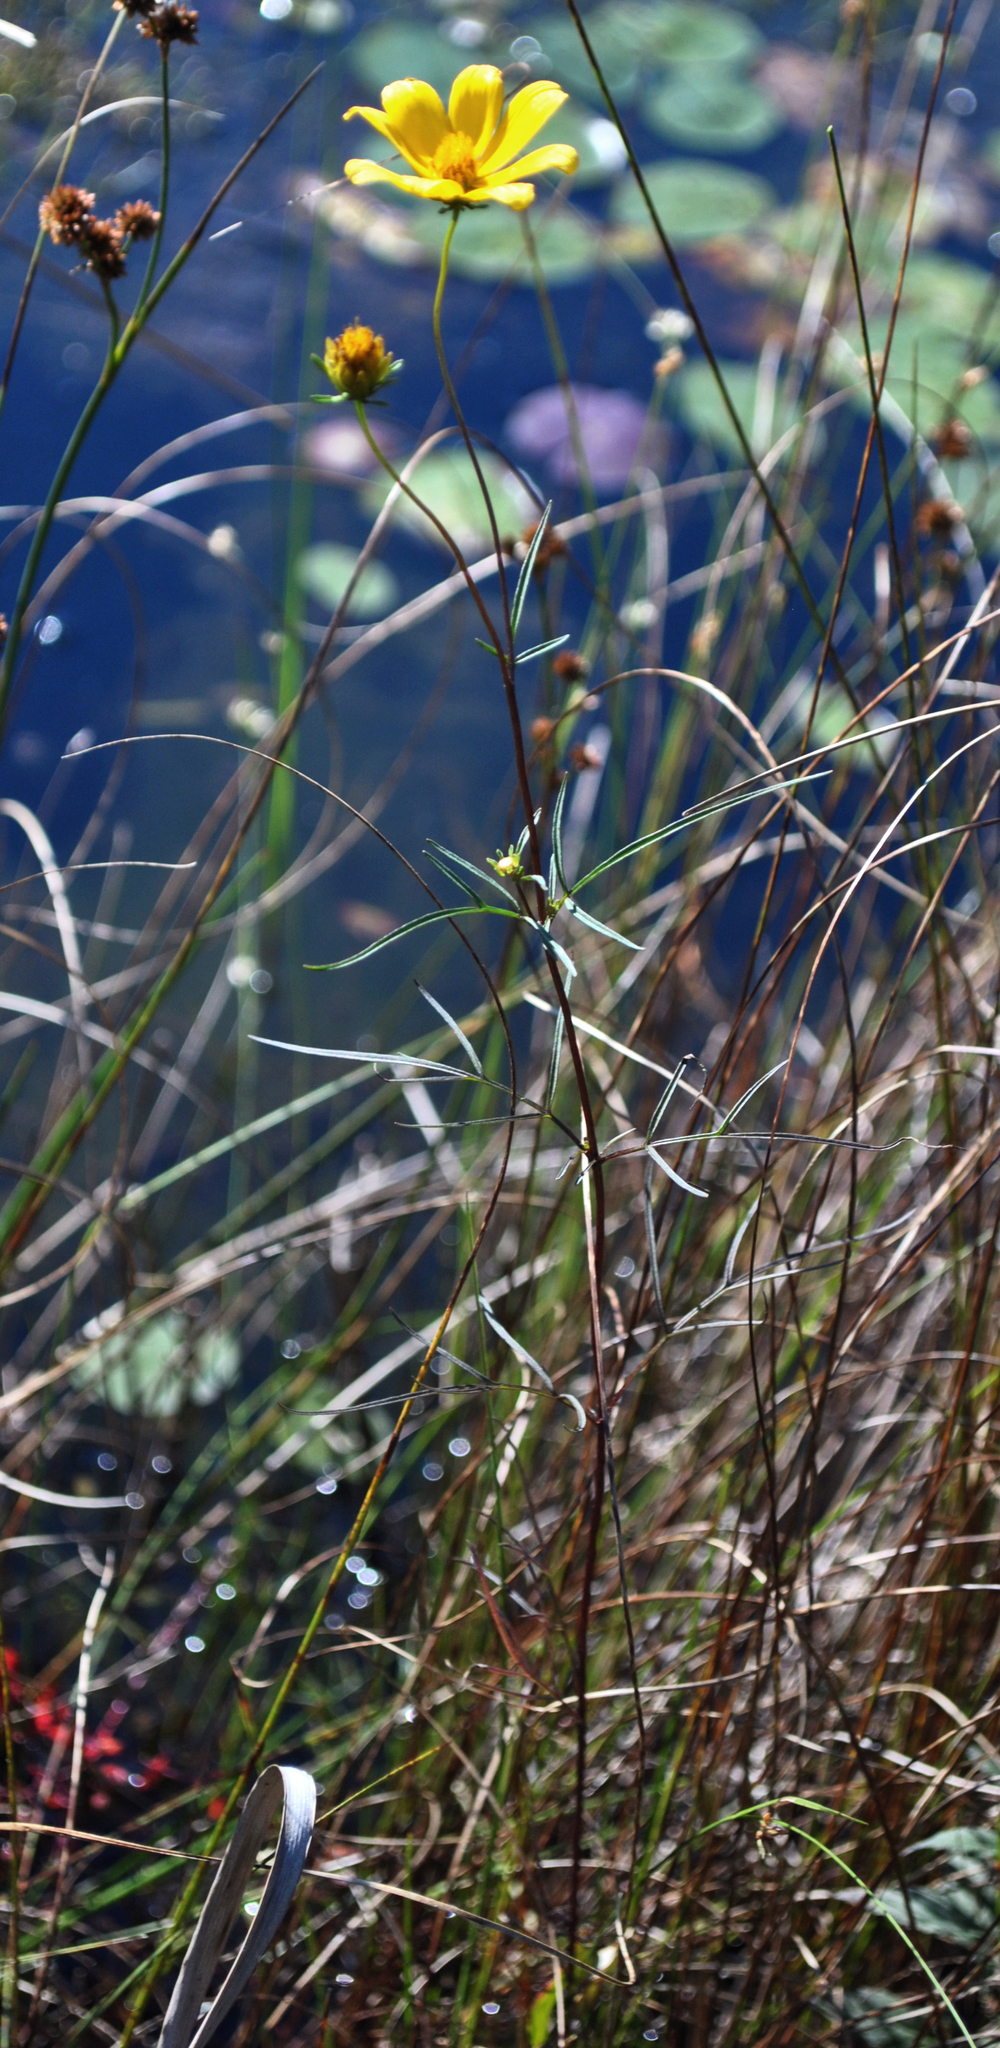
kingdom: Plantae
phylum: Tracheophyta
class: Magnoliopsida
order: Asterales
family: Asteraceae
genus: Bidens
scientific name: Bidens trichosperma
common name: Crowned beggarticks
